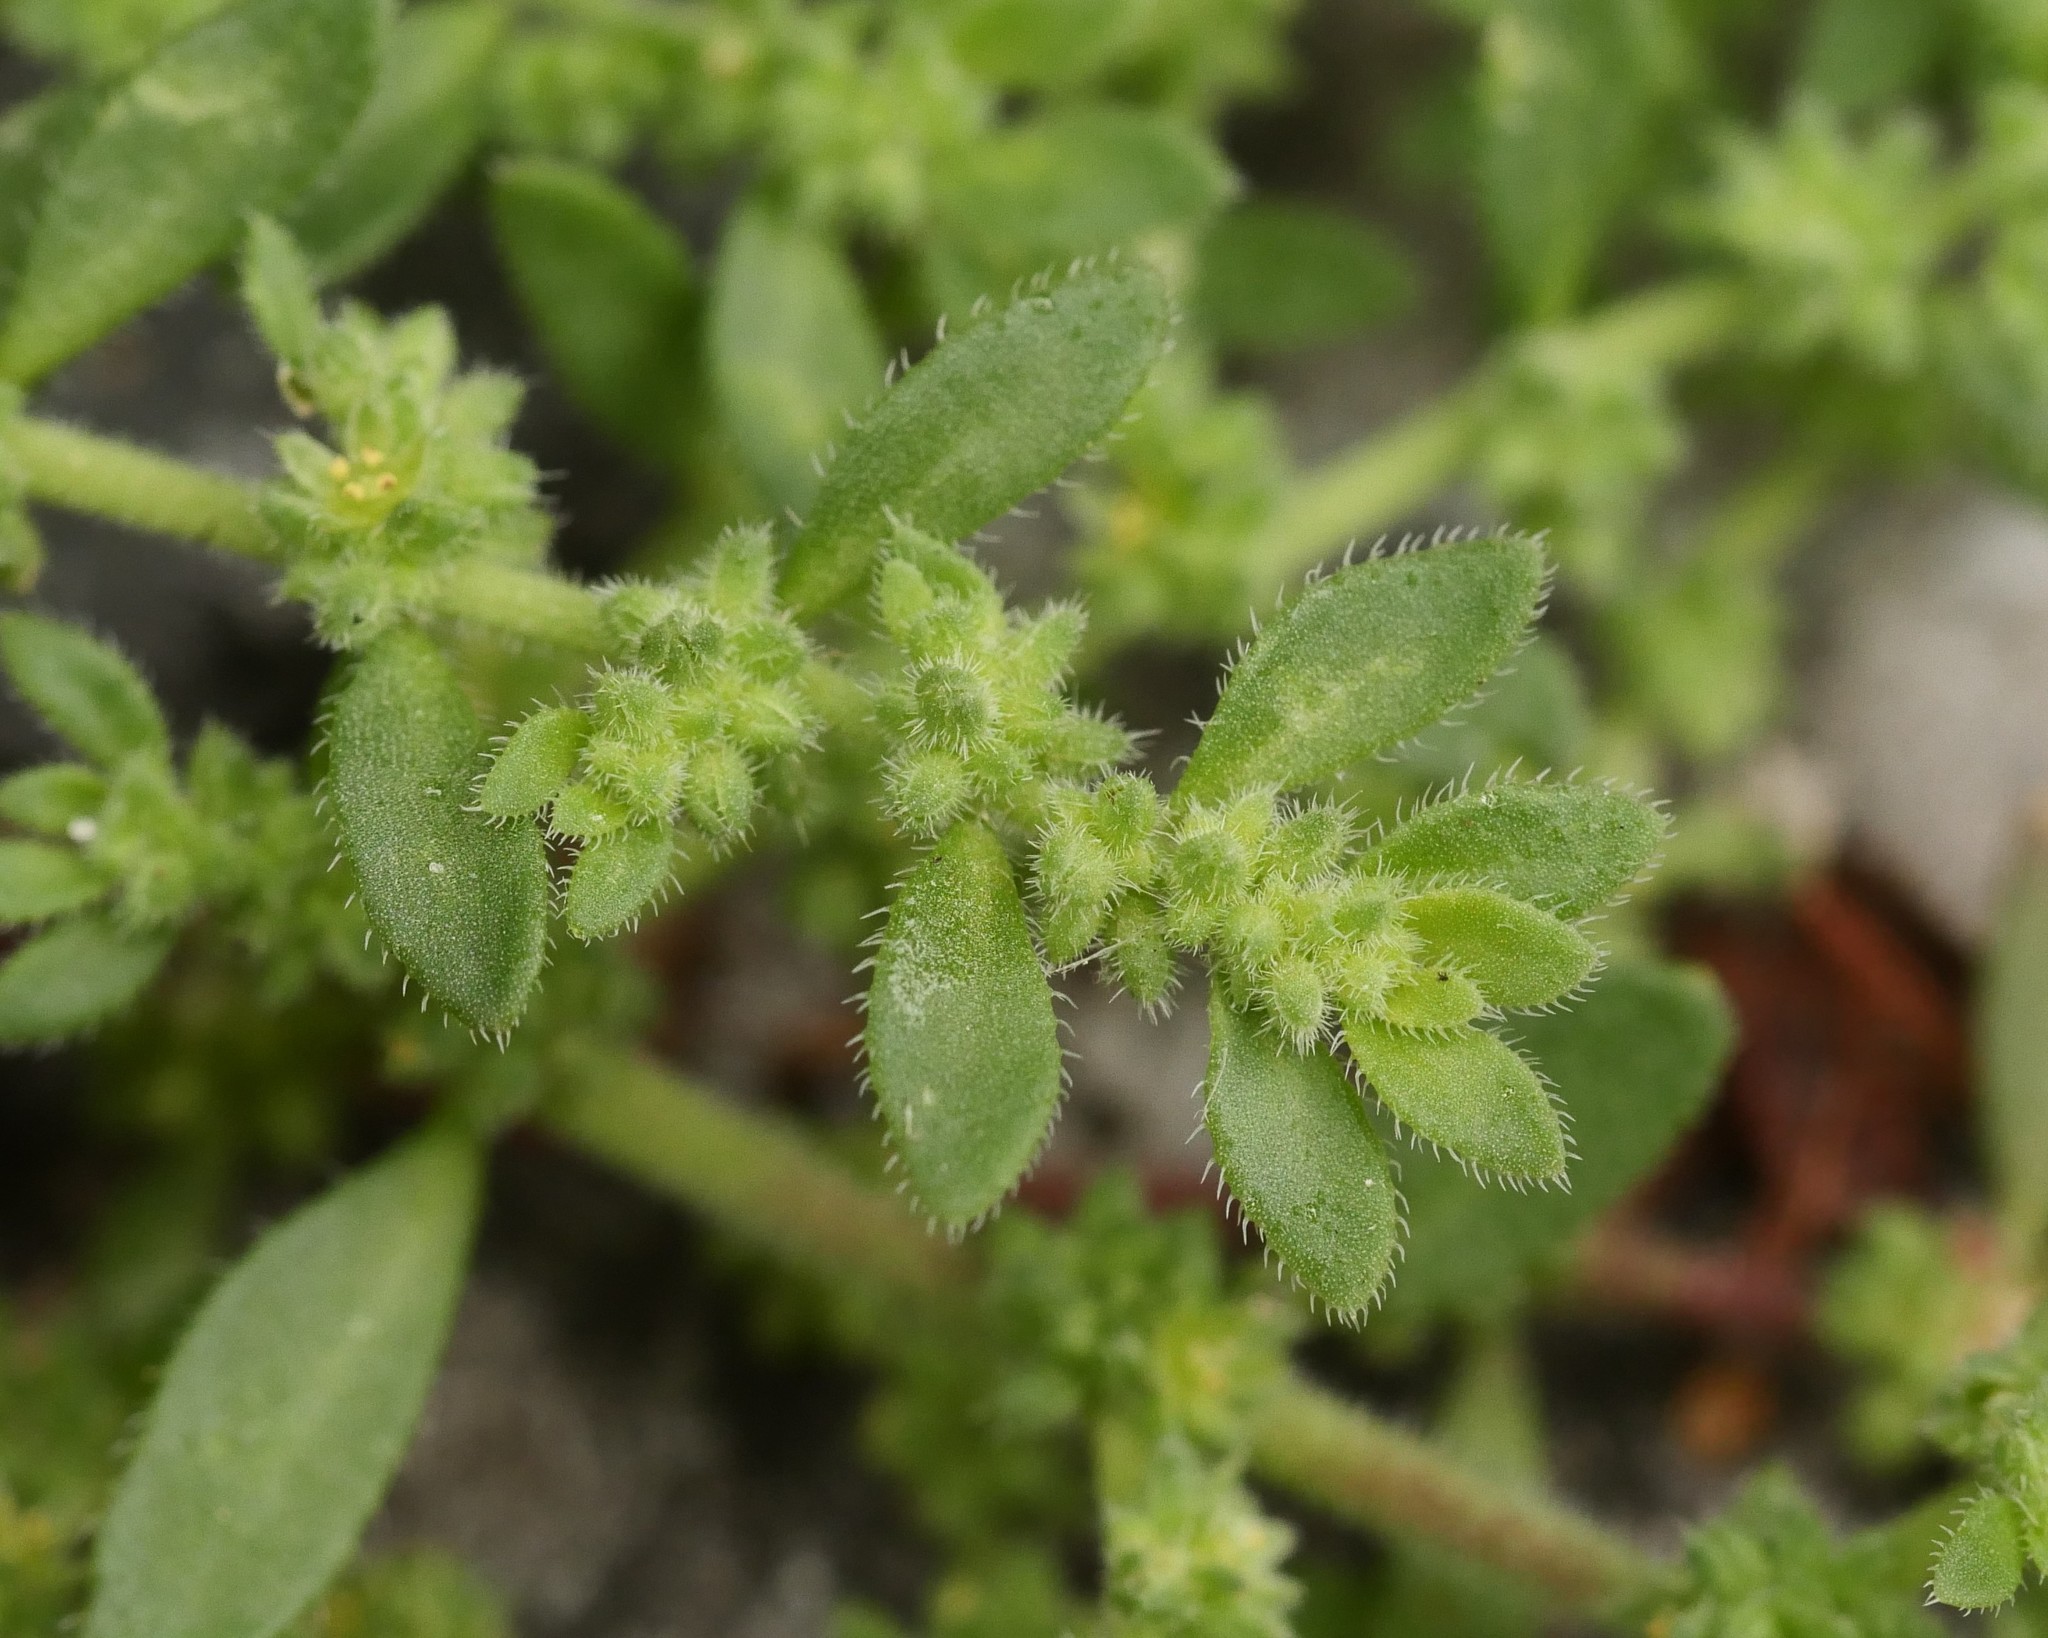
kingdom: Plantae
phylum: Tracheophyta
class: Magnoliopsida
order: Caryophyllales
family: Caryophyllaceae
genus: Herniaria
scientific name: Herniaria hirsuta
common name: Hairy rupturewort
